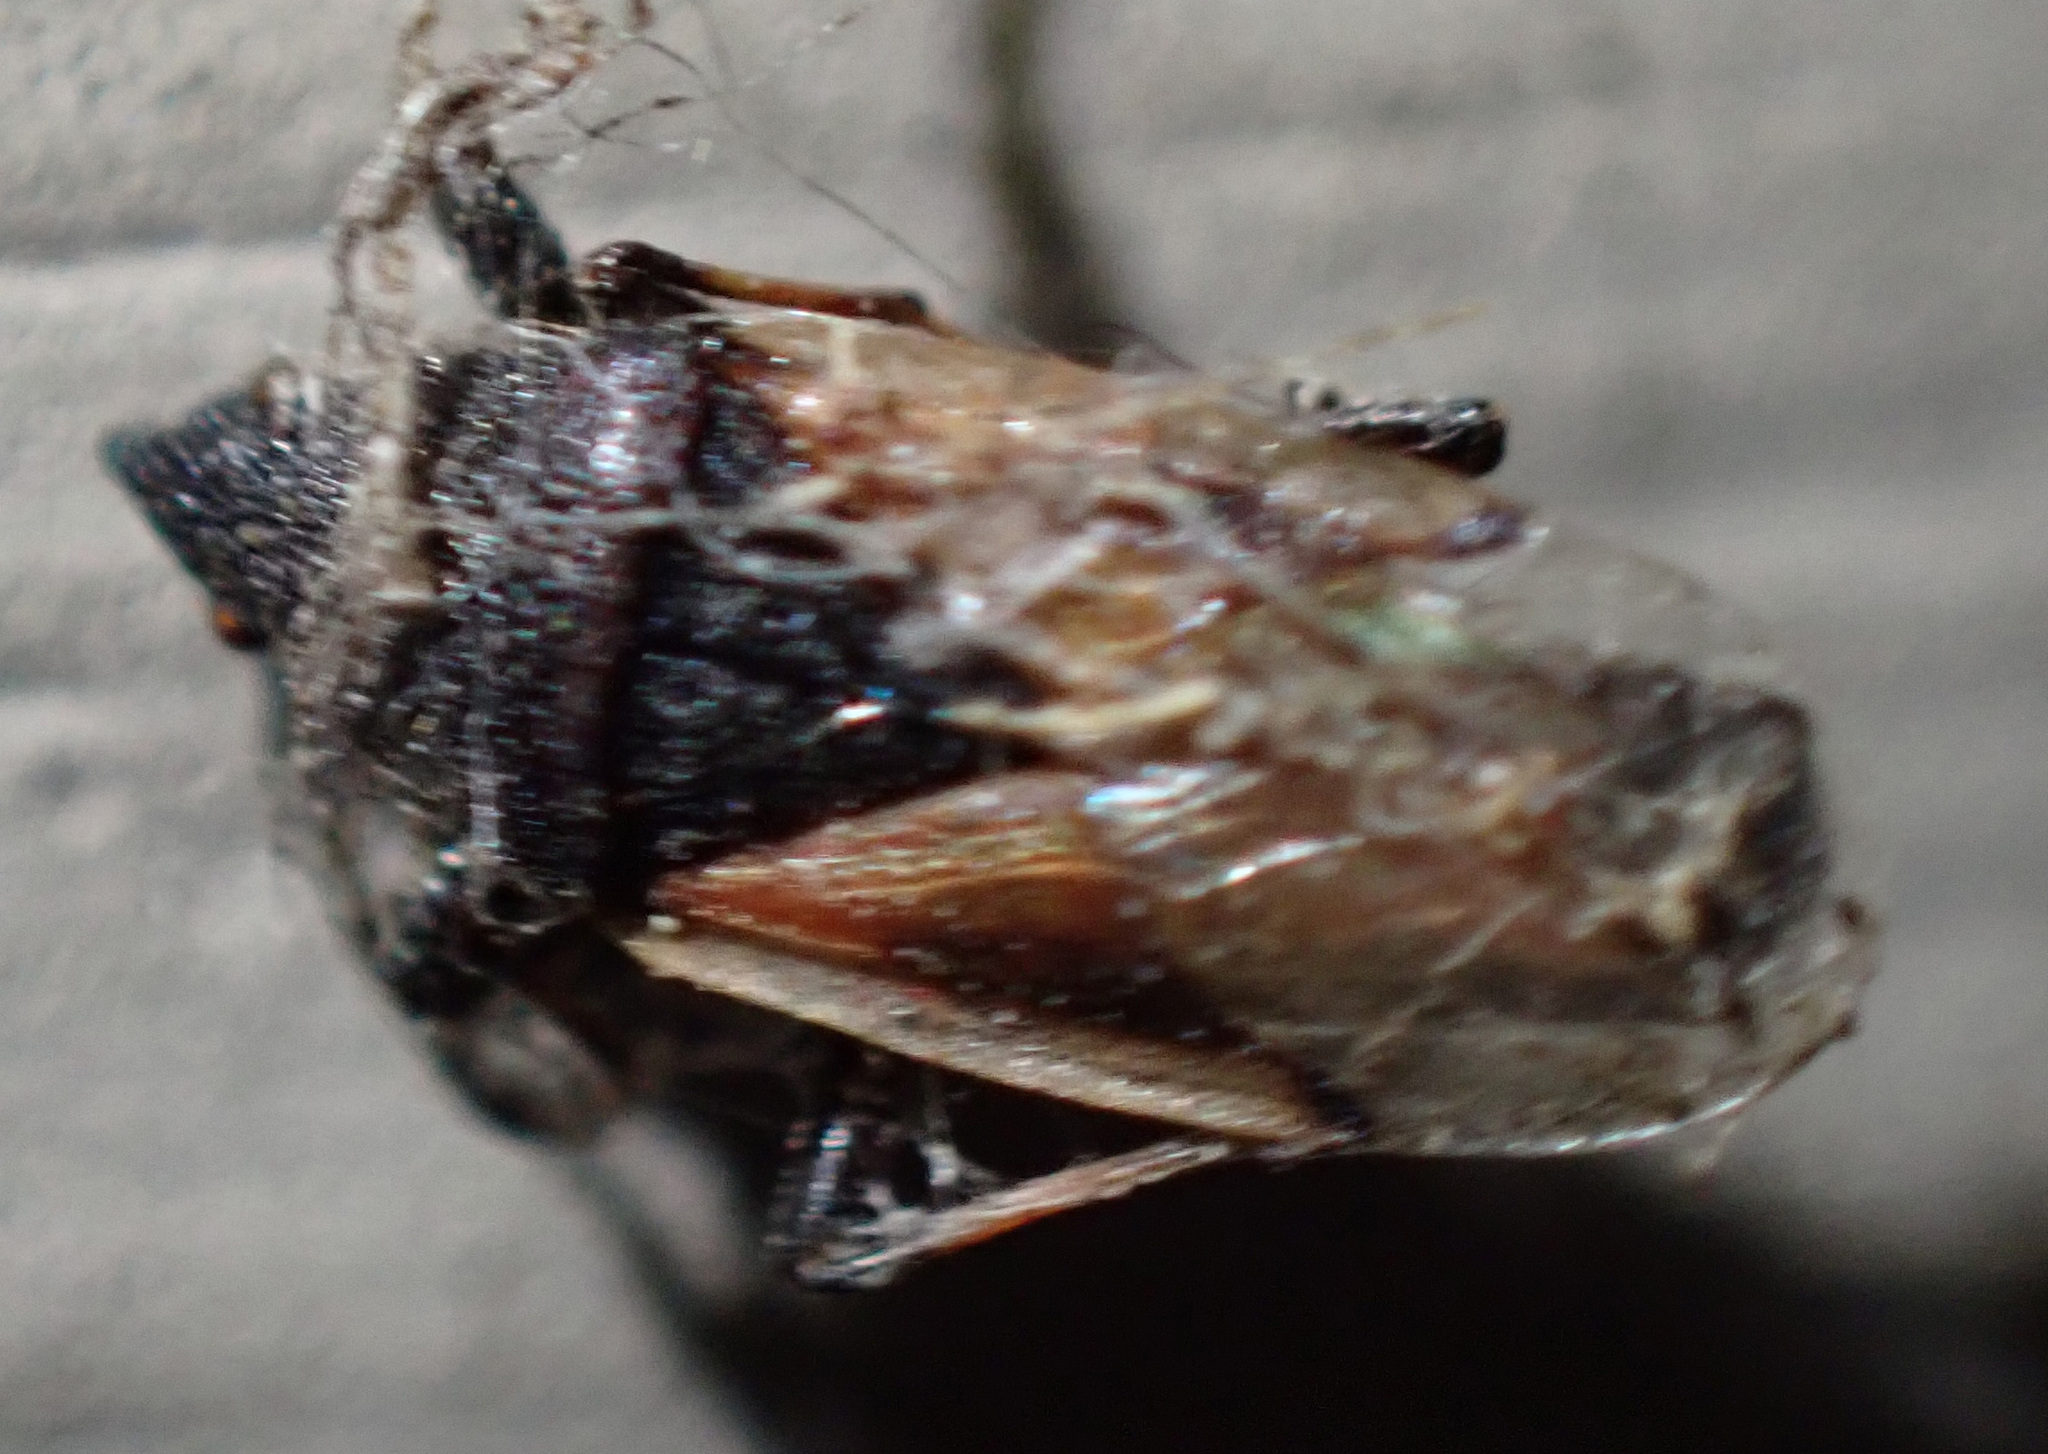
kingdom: Animalia
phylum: Arthropoda
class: Insecta
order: Hemiptera
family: Oxycarenidae
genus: Oxycarenus
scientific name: Oxycarenus lavaterae
